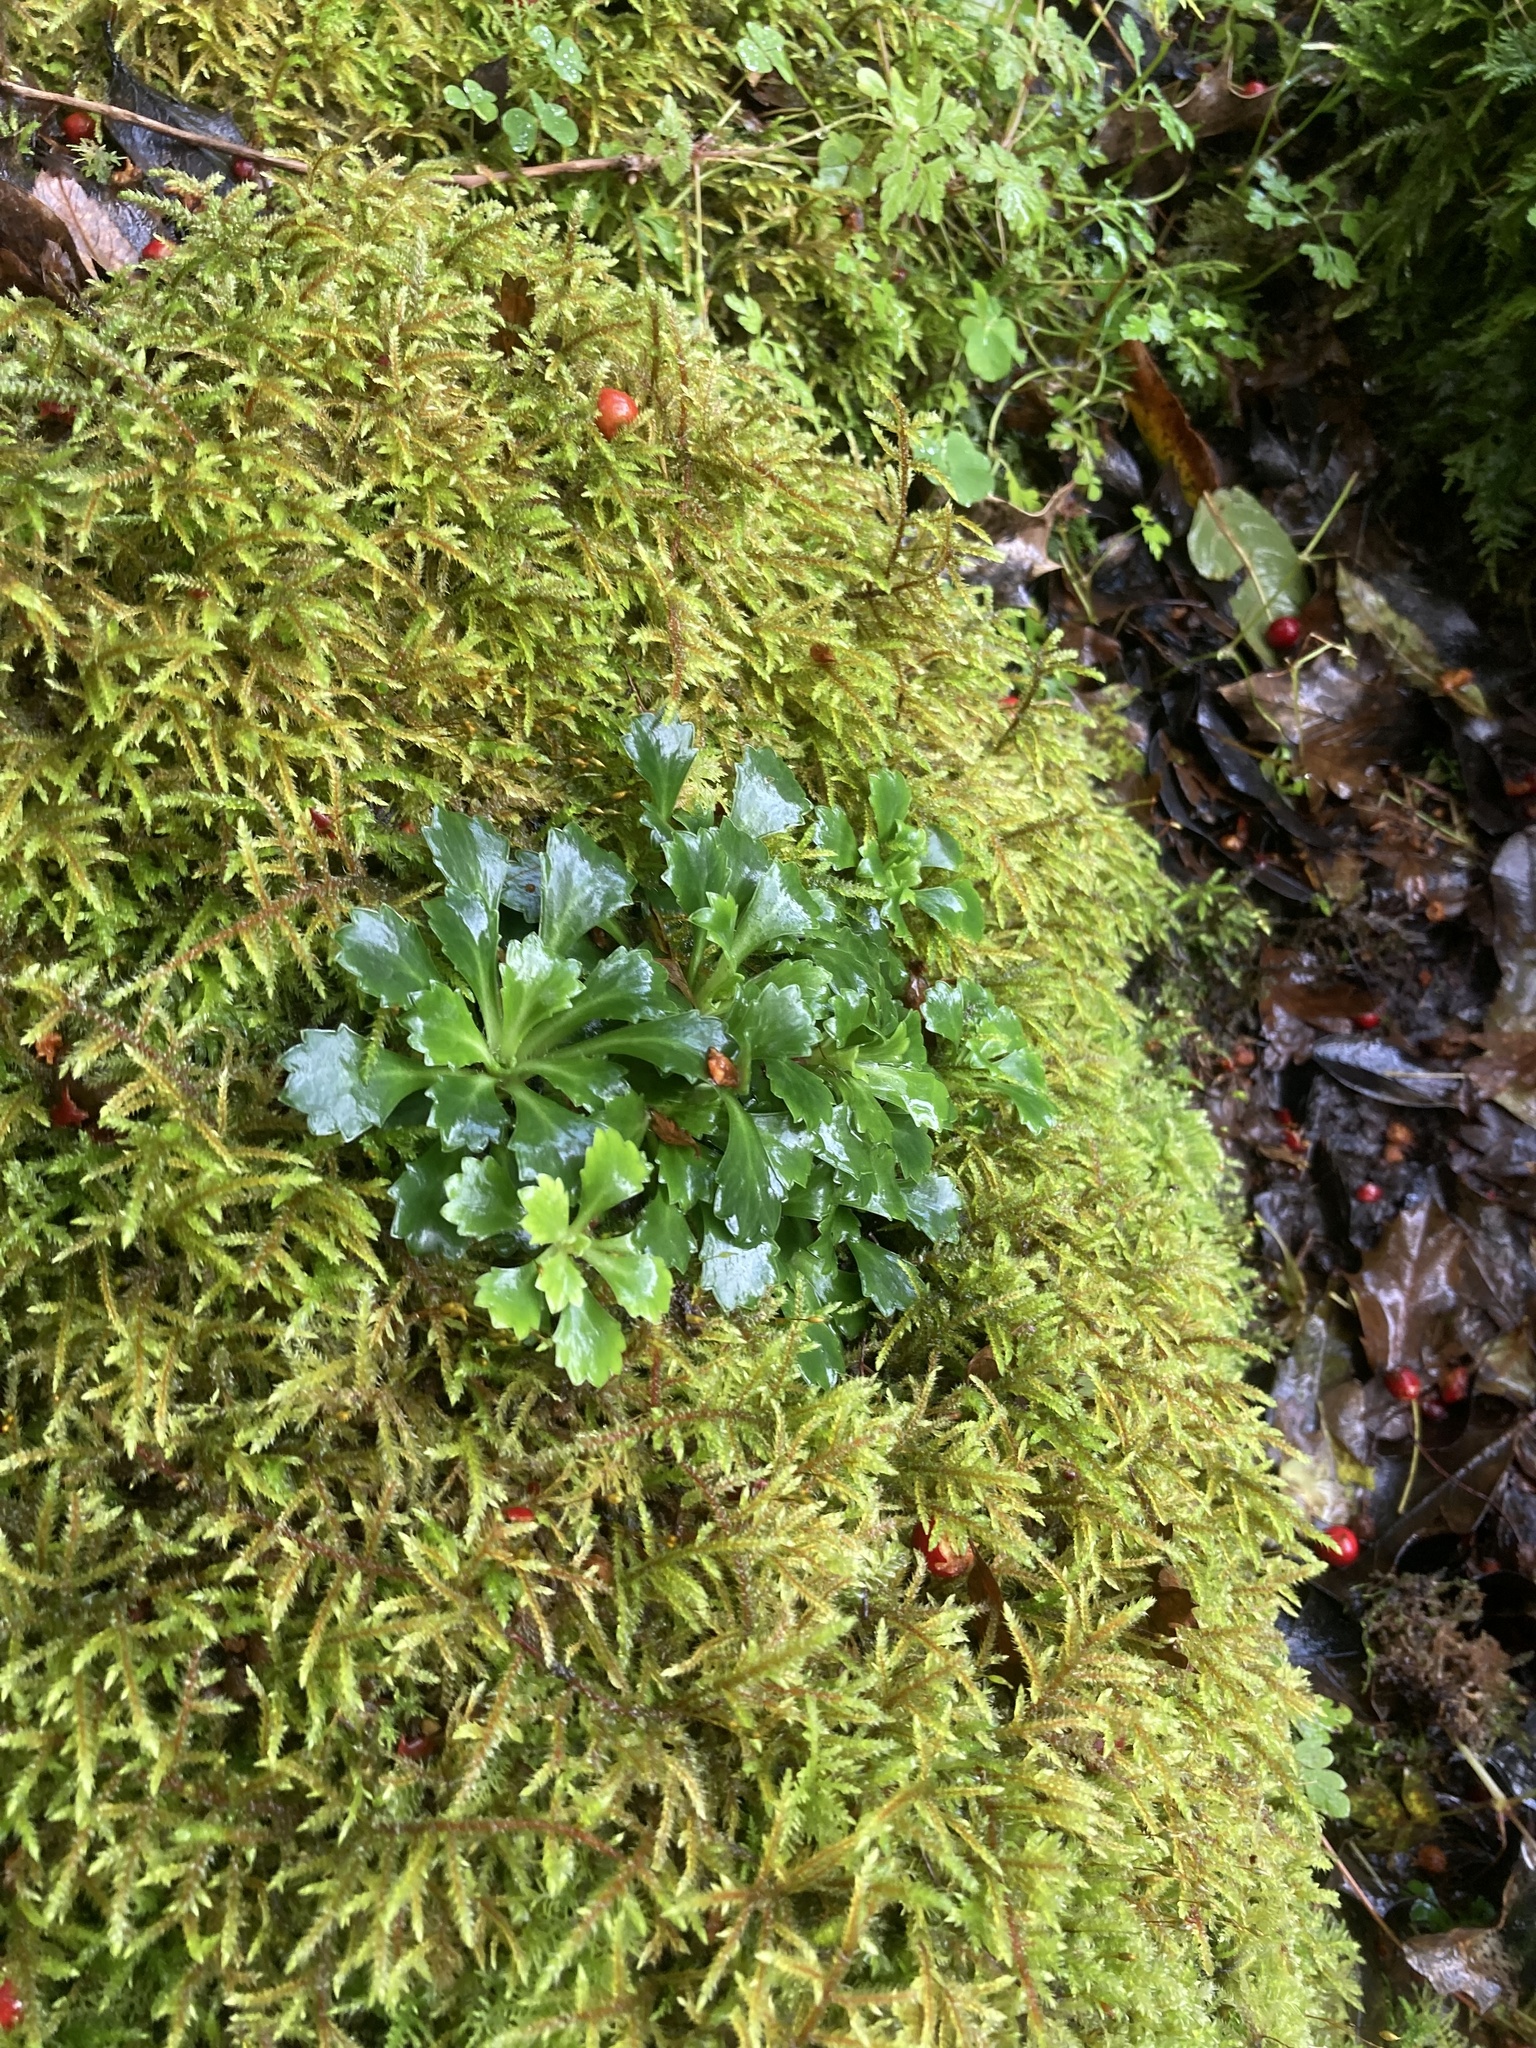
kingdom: Plantae
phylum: Tracheophyta
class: Magnoliopsida
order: Saxifragales
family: Saxifragaceae
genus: Saxifraga
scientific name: Saxifraga spathularis
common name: St patrick's-cabbage
